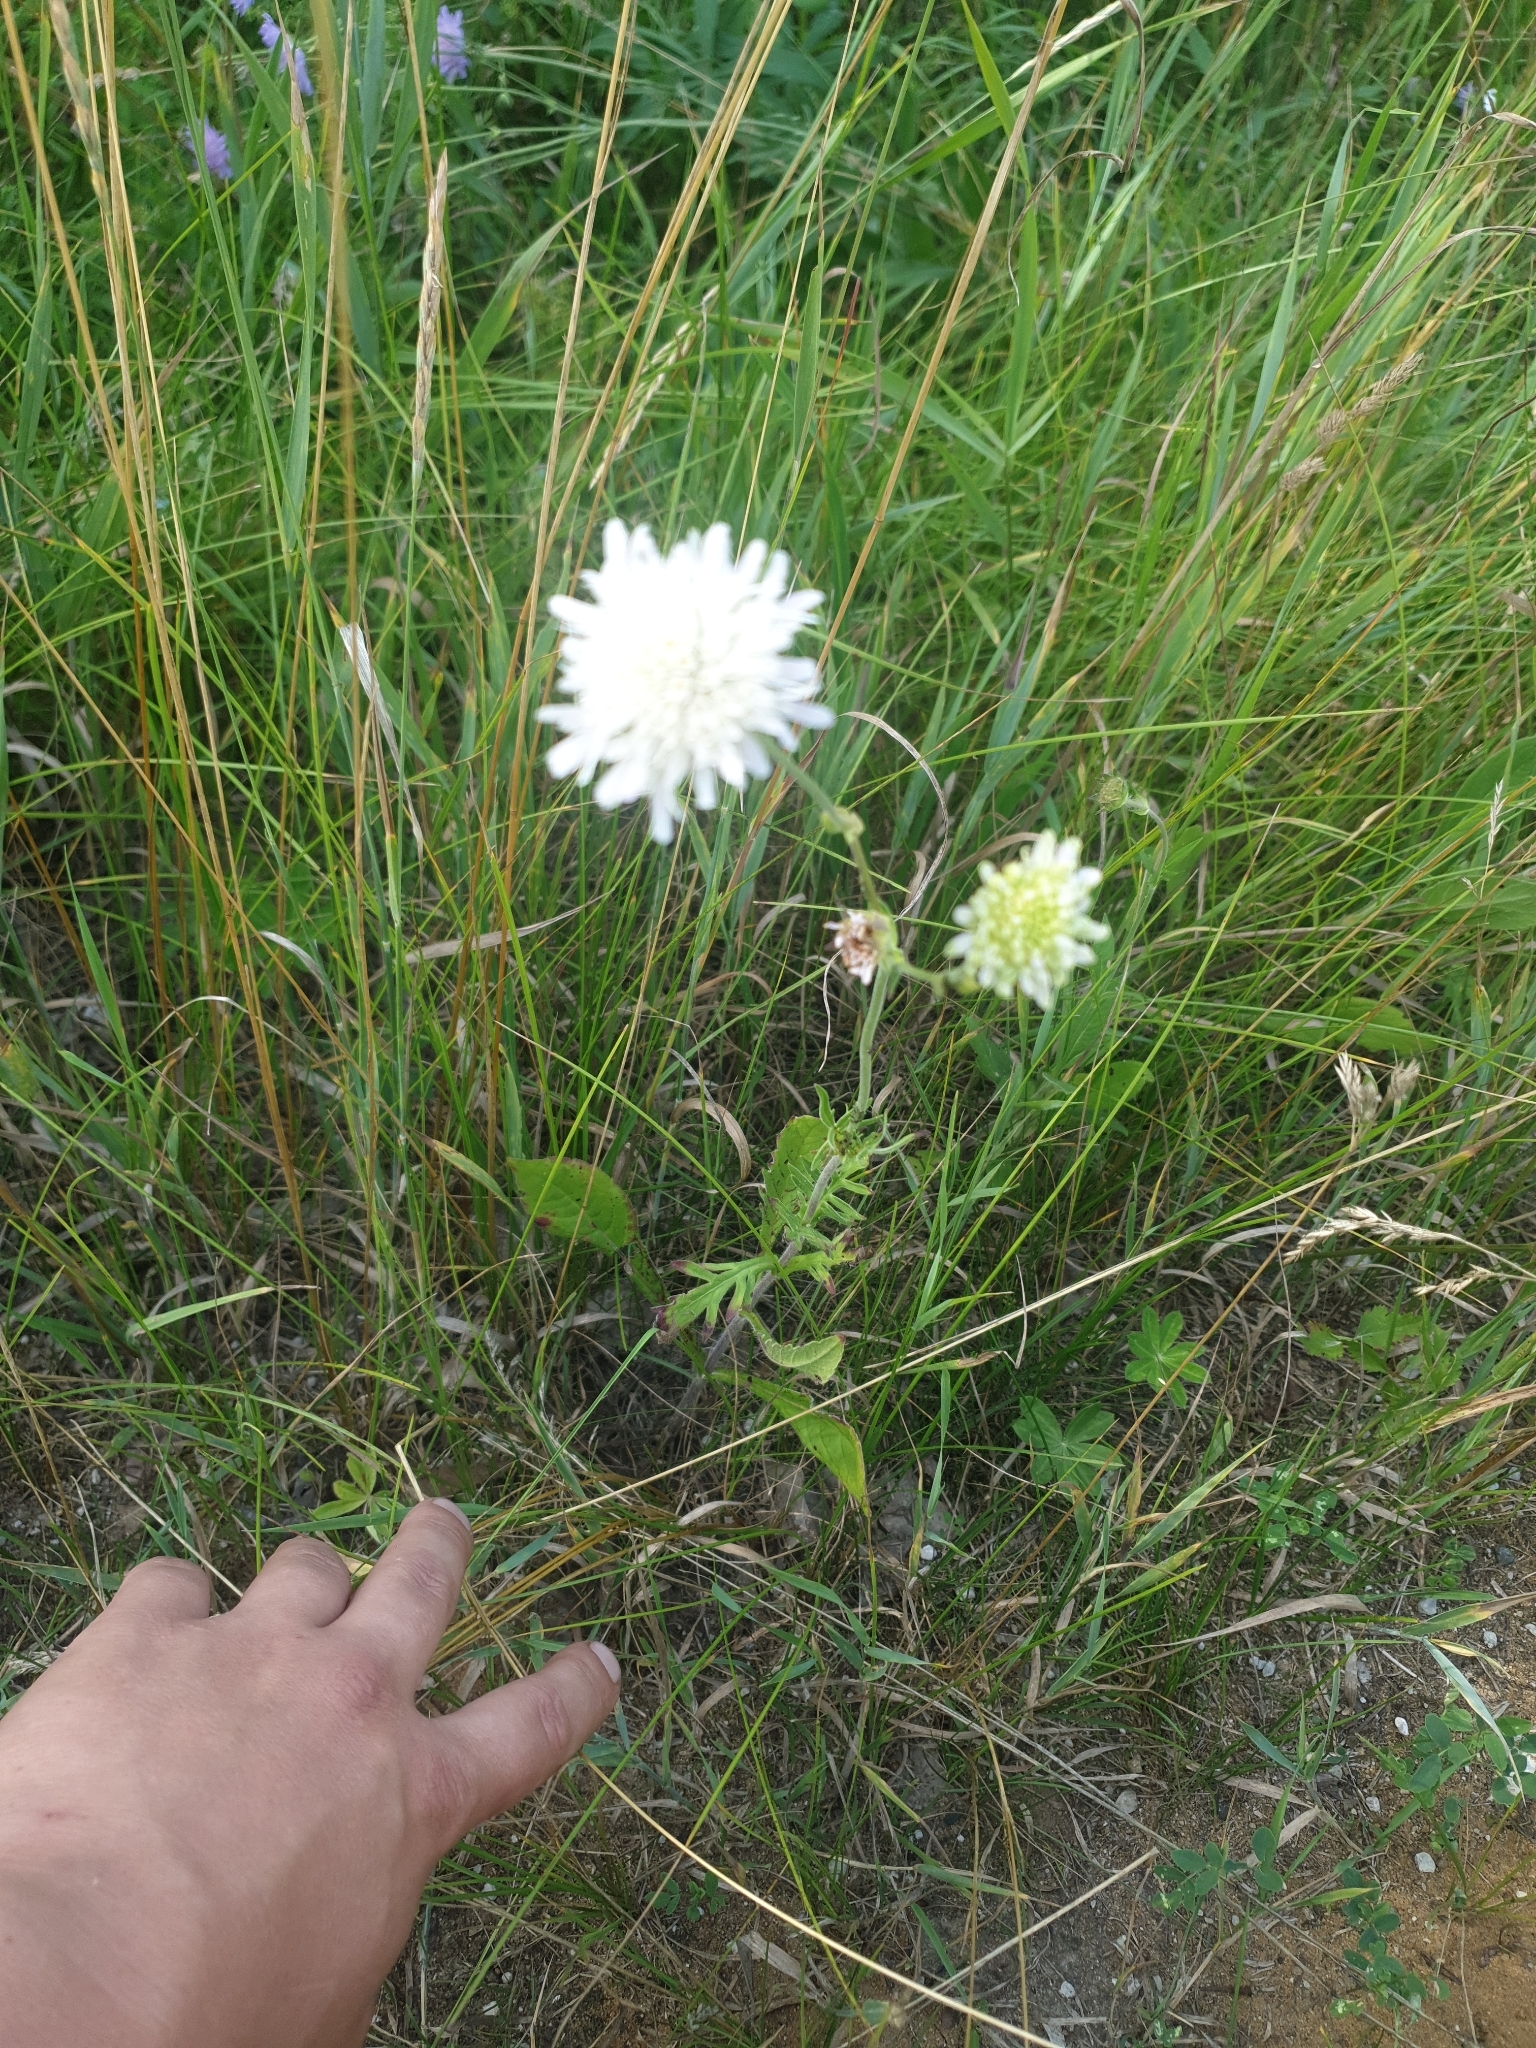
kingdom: Plantae
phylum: Tracheophyta
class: Magnoliopsida
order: Dipsacales
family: Caprifoliaceae
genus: Knautia
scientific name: Knautia arvensis
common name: Field scabiosa
